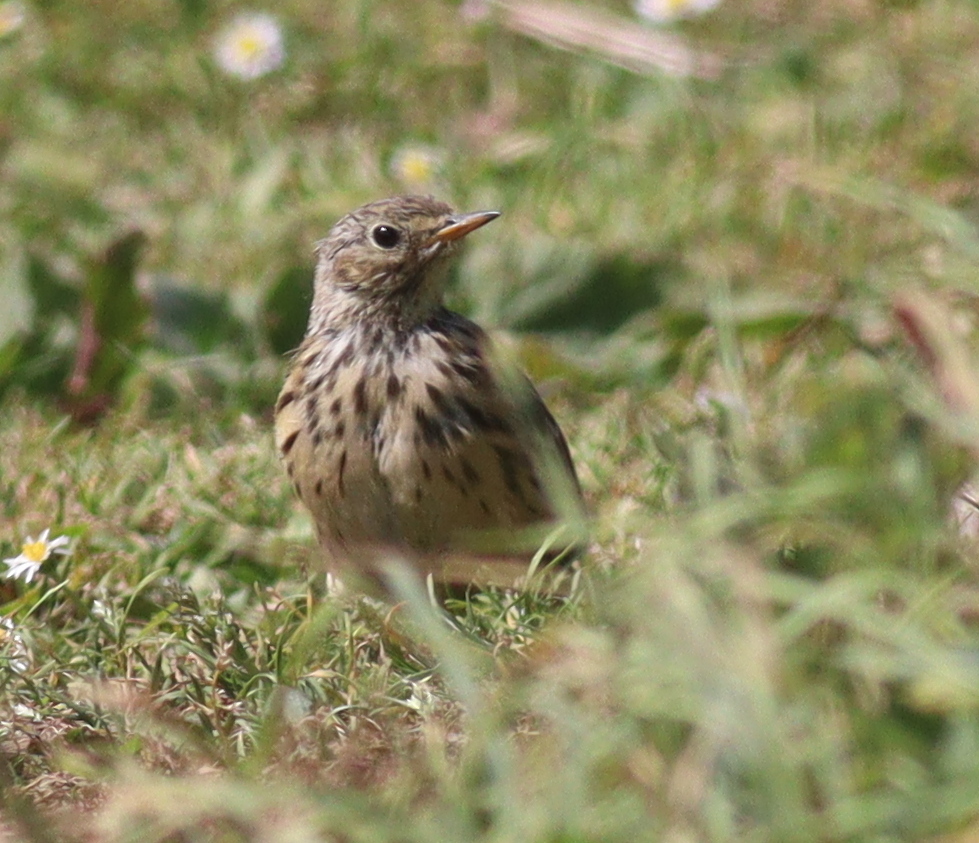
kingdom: Animalia
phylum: Chordata
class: Aves
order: Passeriformes
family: Motacillidae
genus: Anthus
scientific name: Anthus pratensis
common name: Meadow pipit
